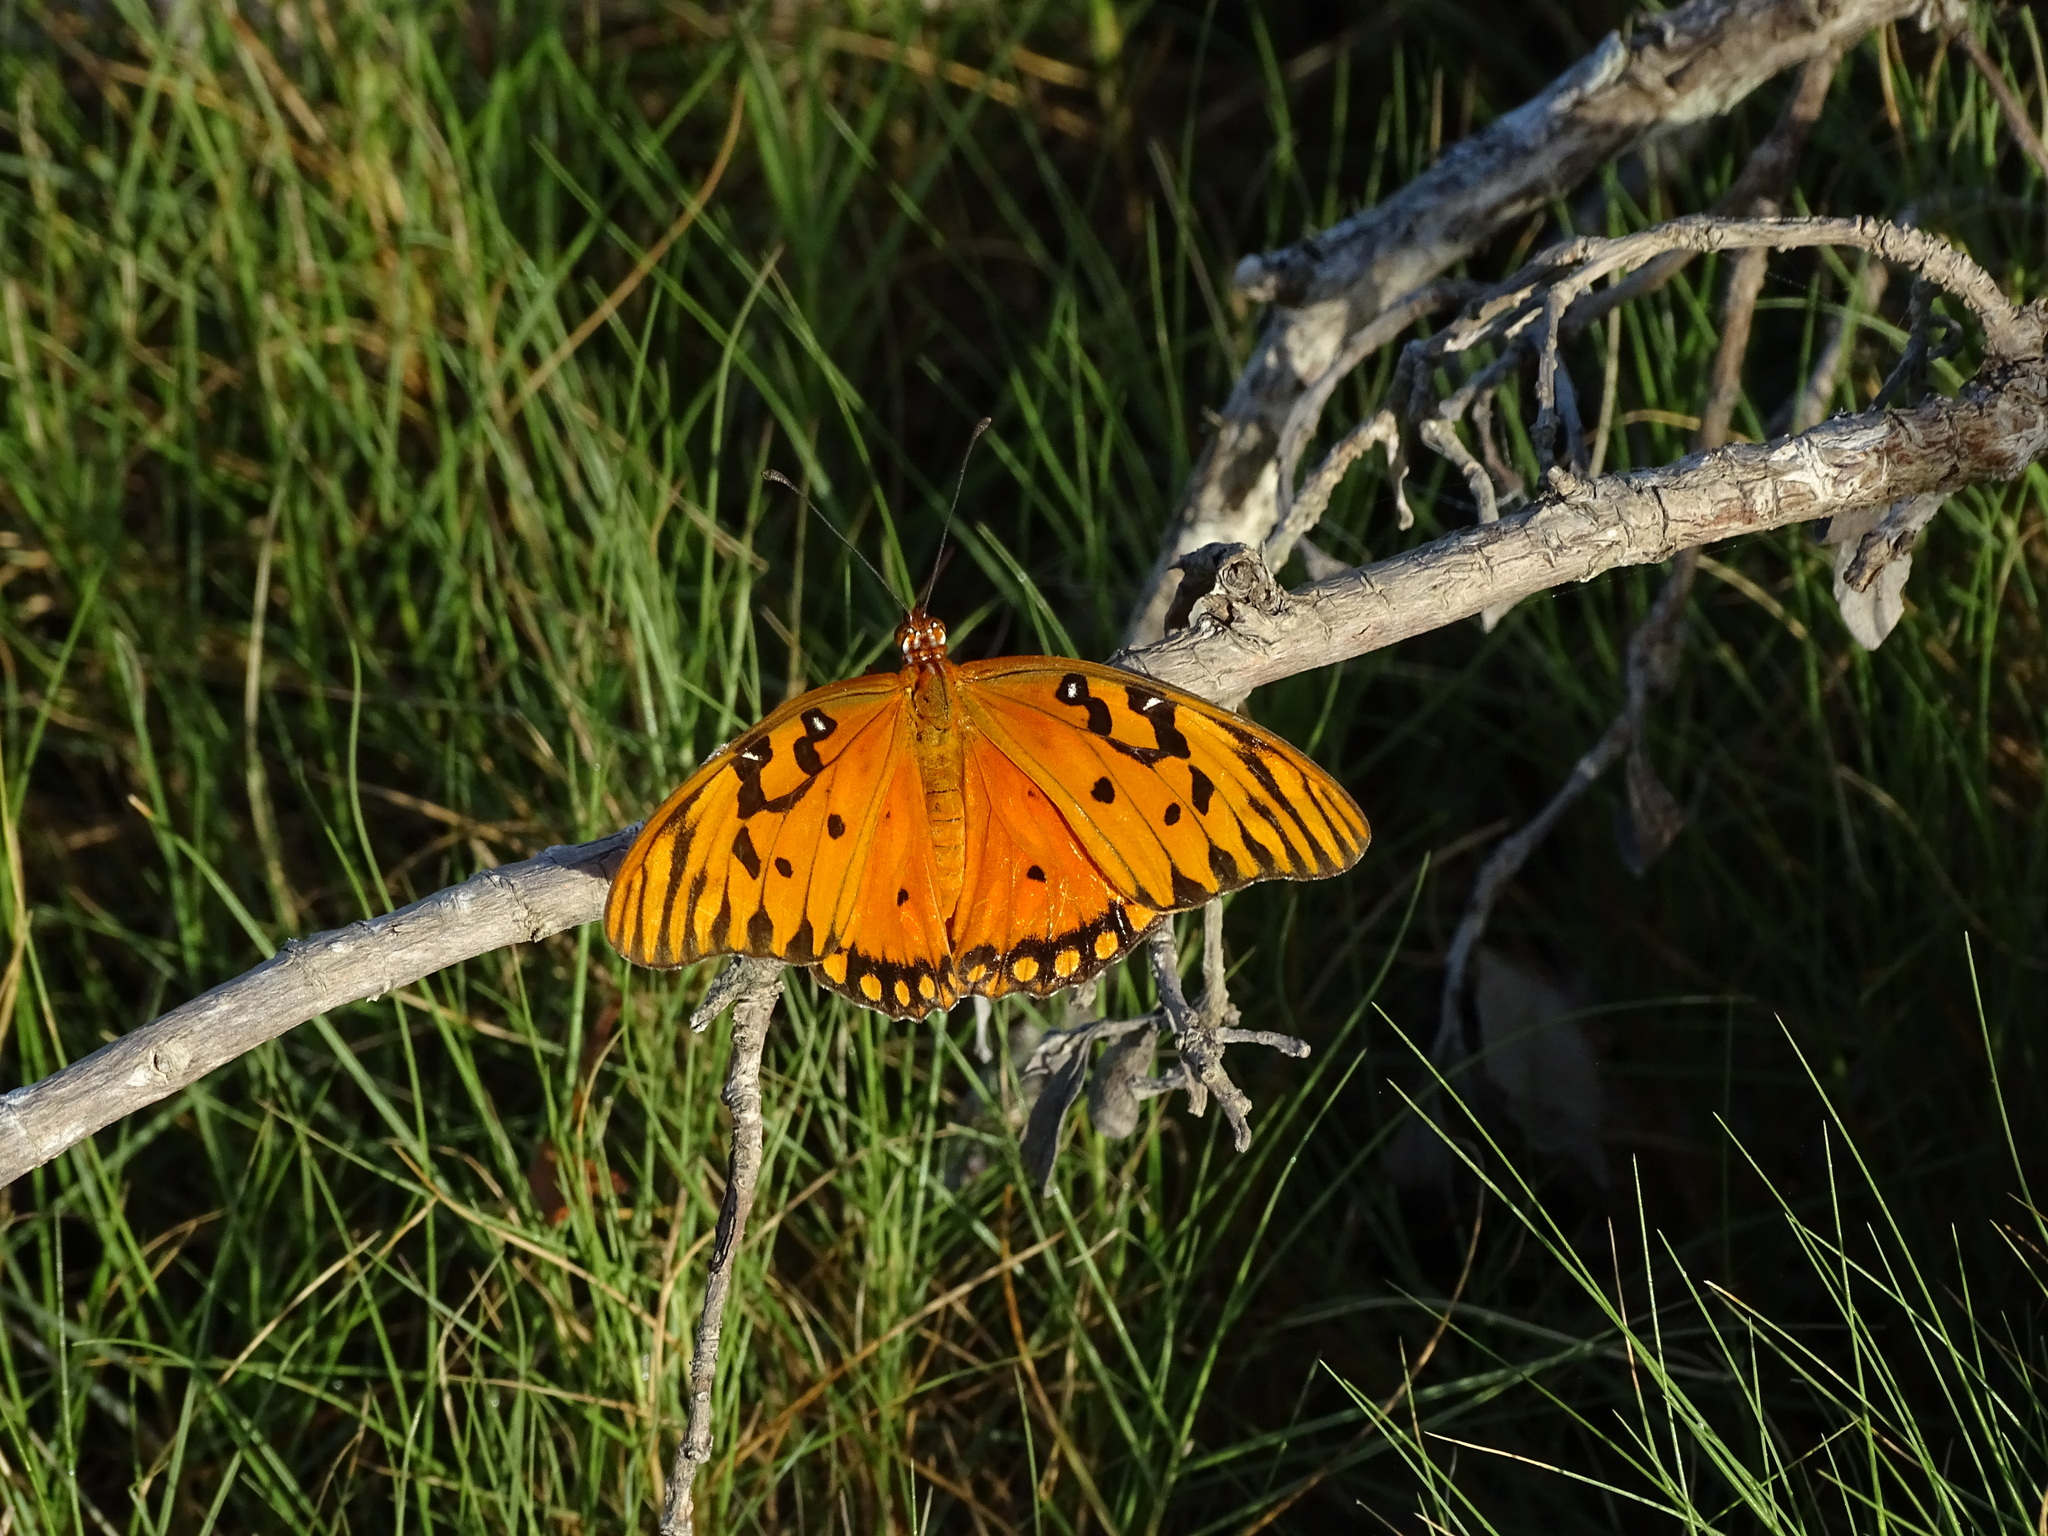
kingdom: Animalia
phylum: Arthropoda
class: Insecta
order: Lepidoptera
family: Nymphalidae
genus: Dione
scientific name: Dione vanillae
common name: Gulf fritillary
